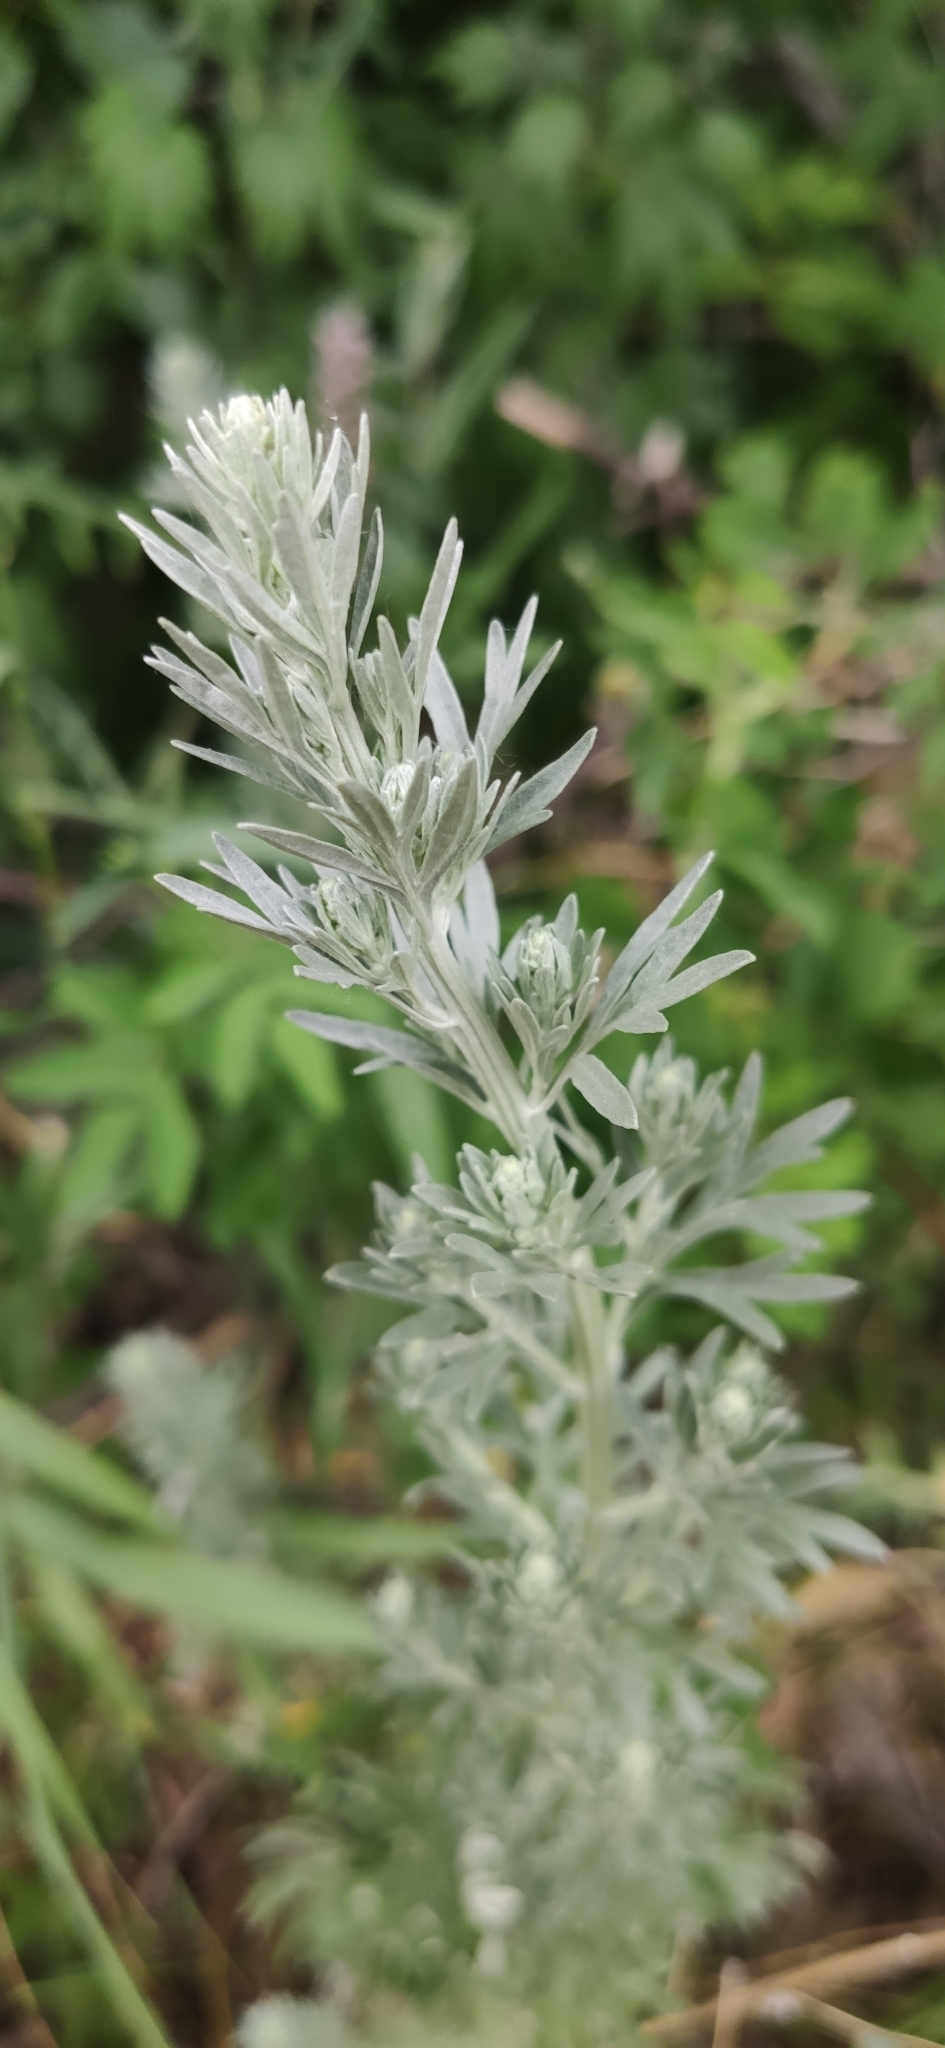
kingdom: Plantae
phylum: Tracheophyta
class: Magnoliopsida
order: Asterales
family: Asteraceae
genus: Artemisia
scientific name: Artemisia absinthium
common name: Wormwood
